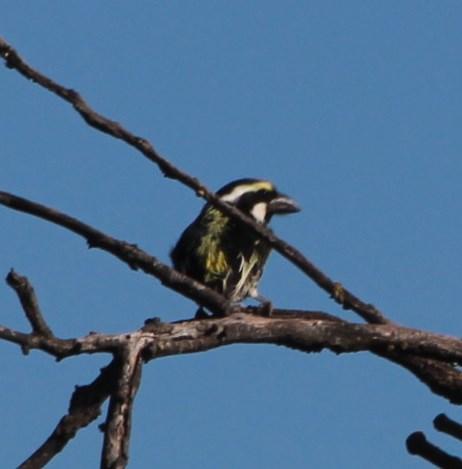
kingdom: Animalia
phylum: Chordata
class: Aves
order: Piciformes
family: Lybiidae
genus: Tricholaema
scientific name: Tricholaema leucomelas
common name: Acacia pied barbet
